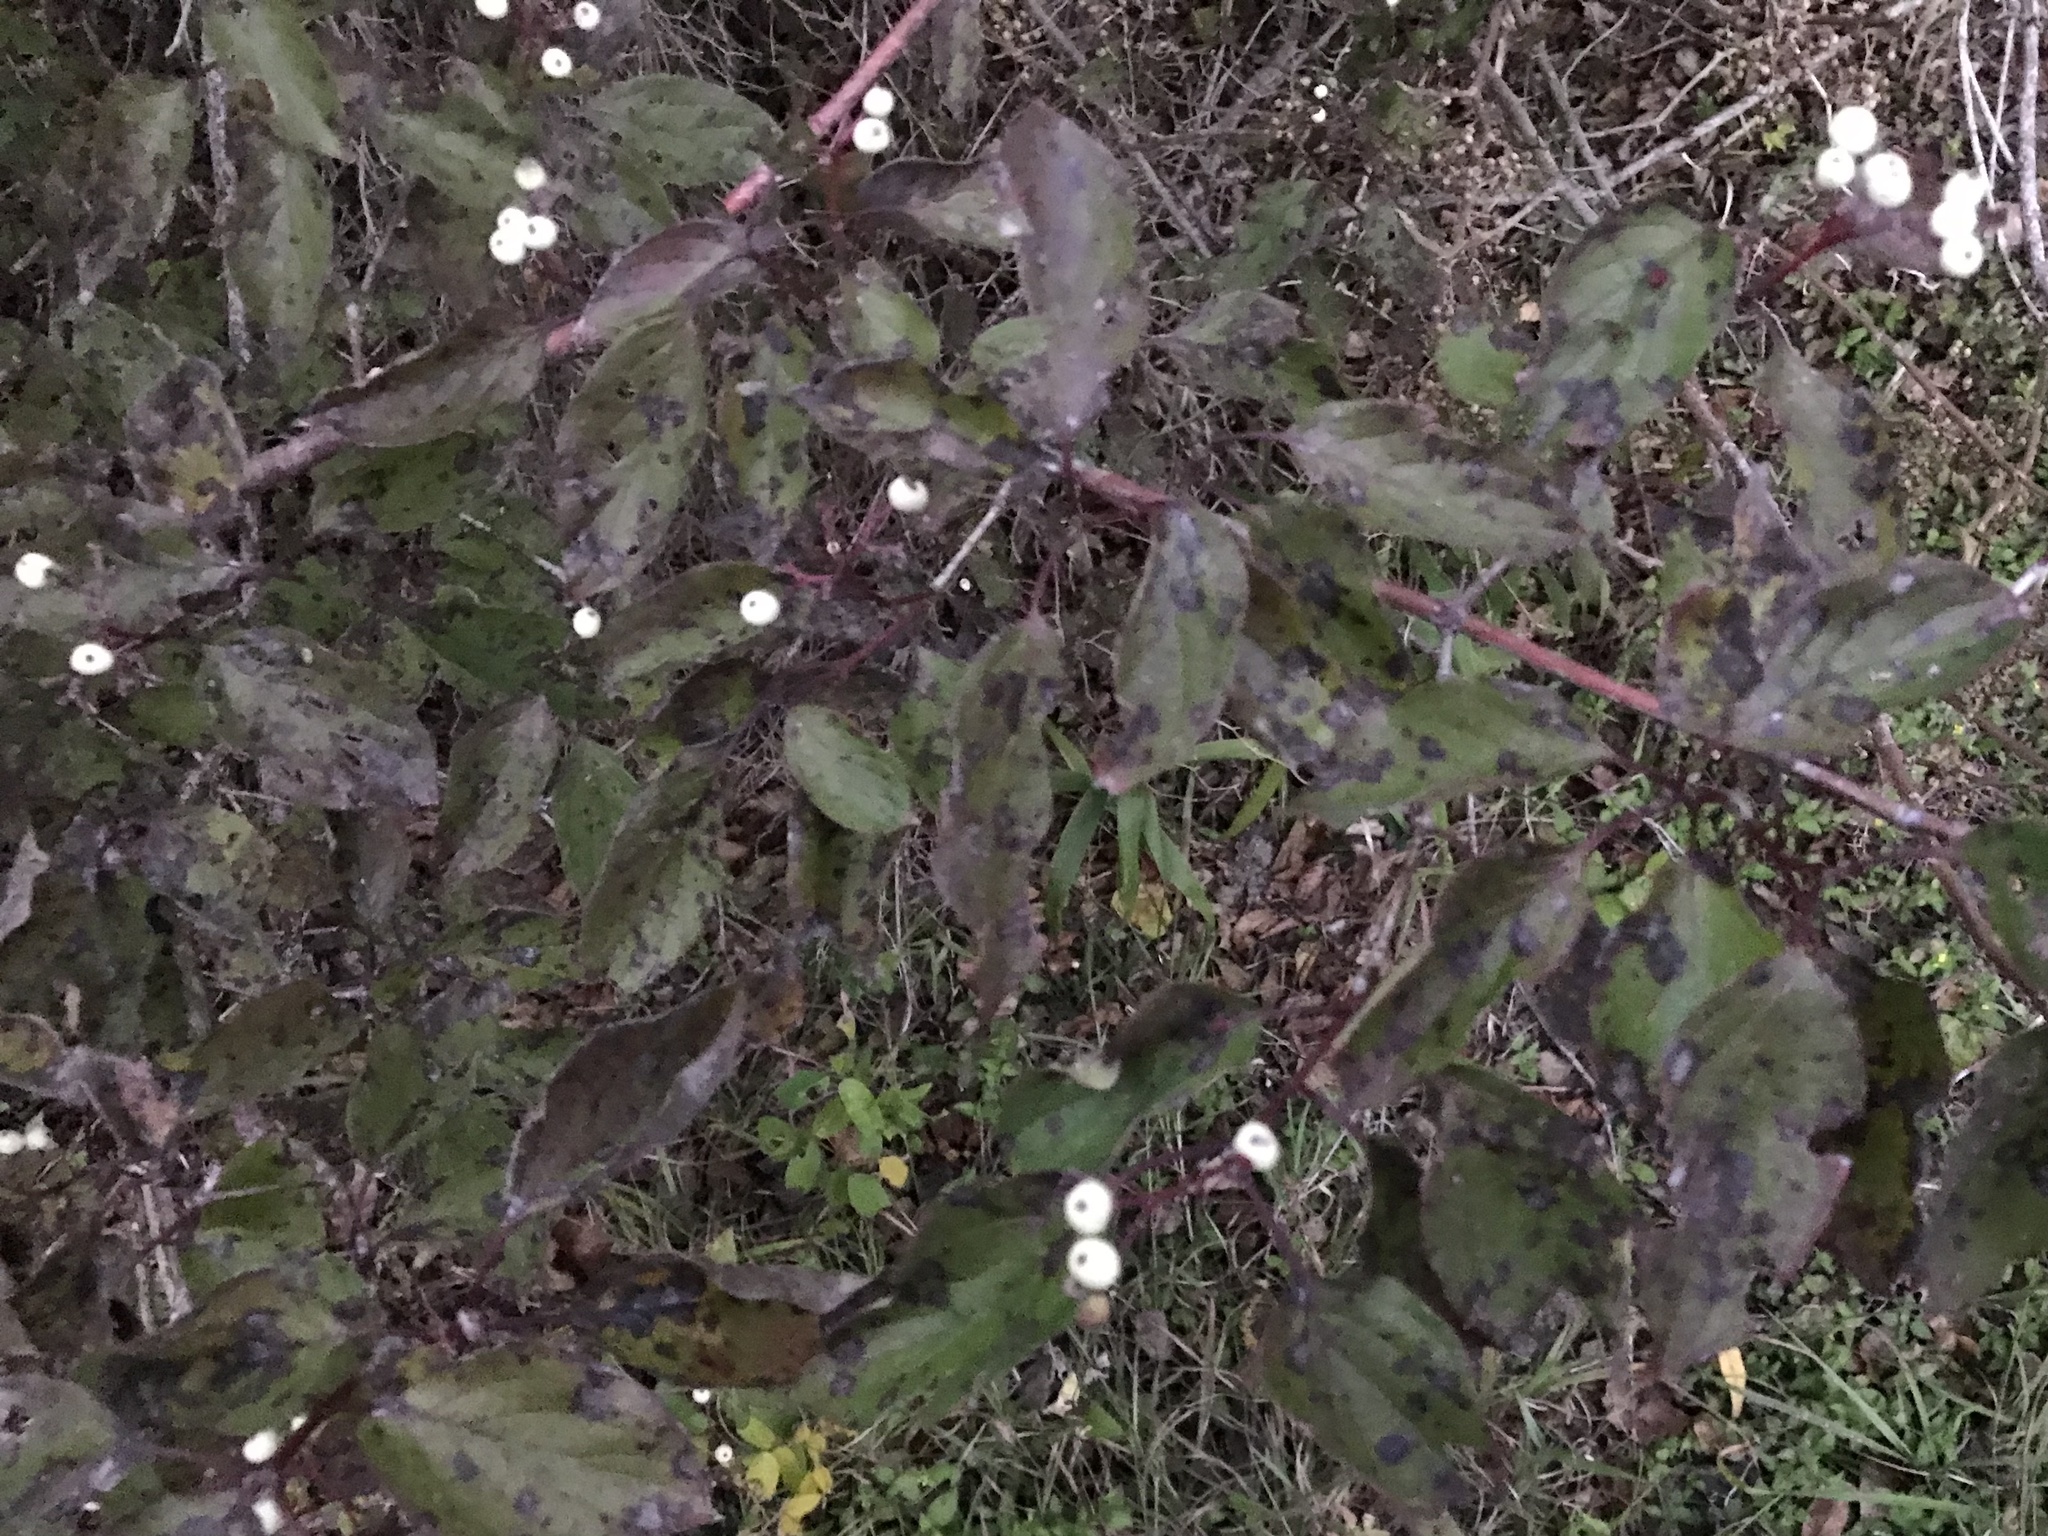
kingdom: Plantae
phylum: Tracheophyta
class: Magnoliopsida
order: Cornales
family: Cornaceae
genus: Cornus
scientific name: Cornus drummondii
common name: Rough-leaf dogwood
